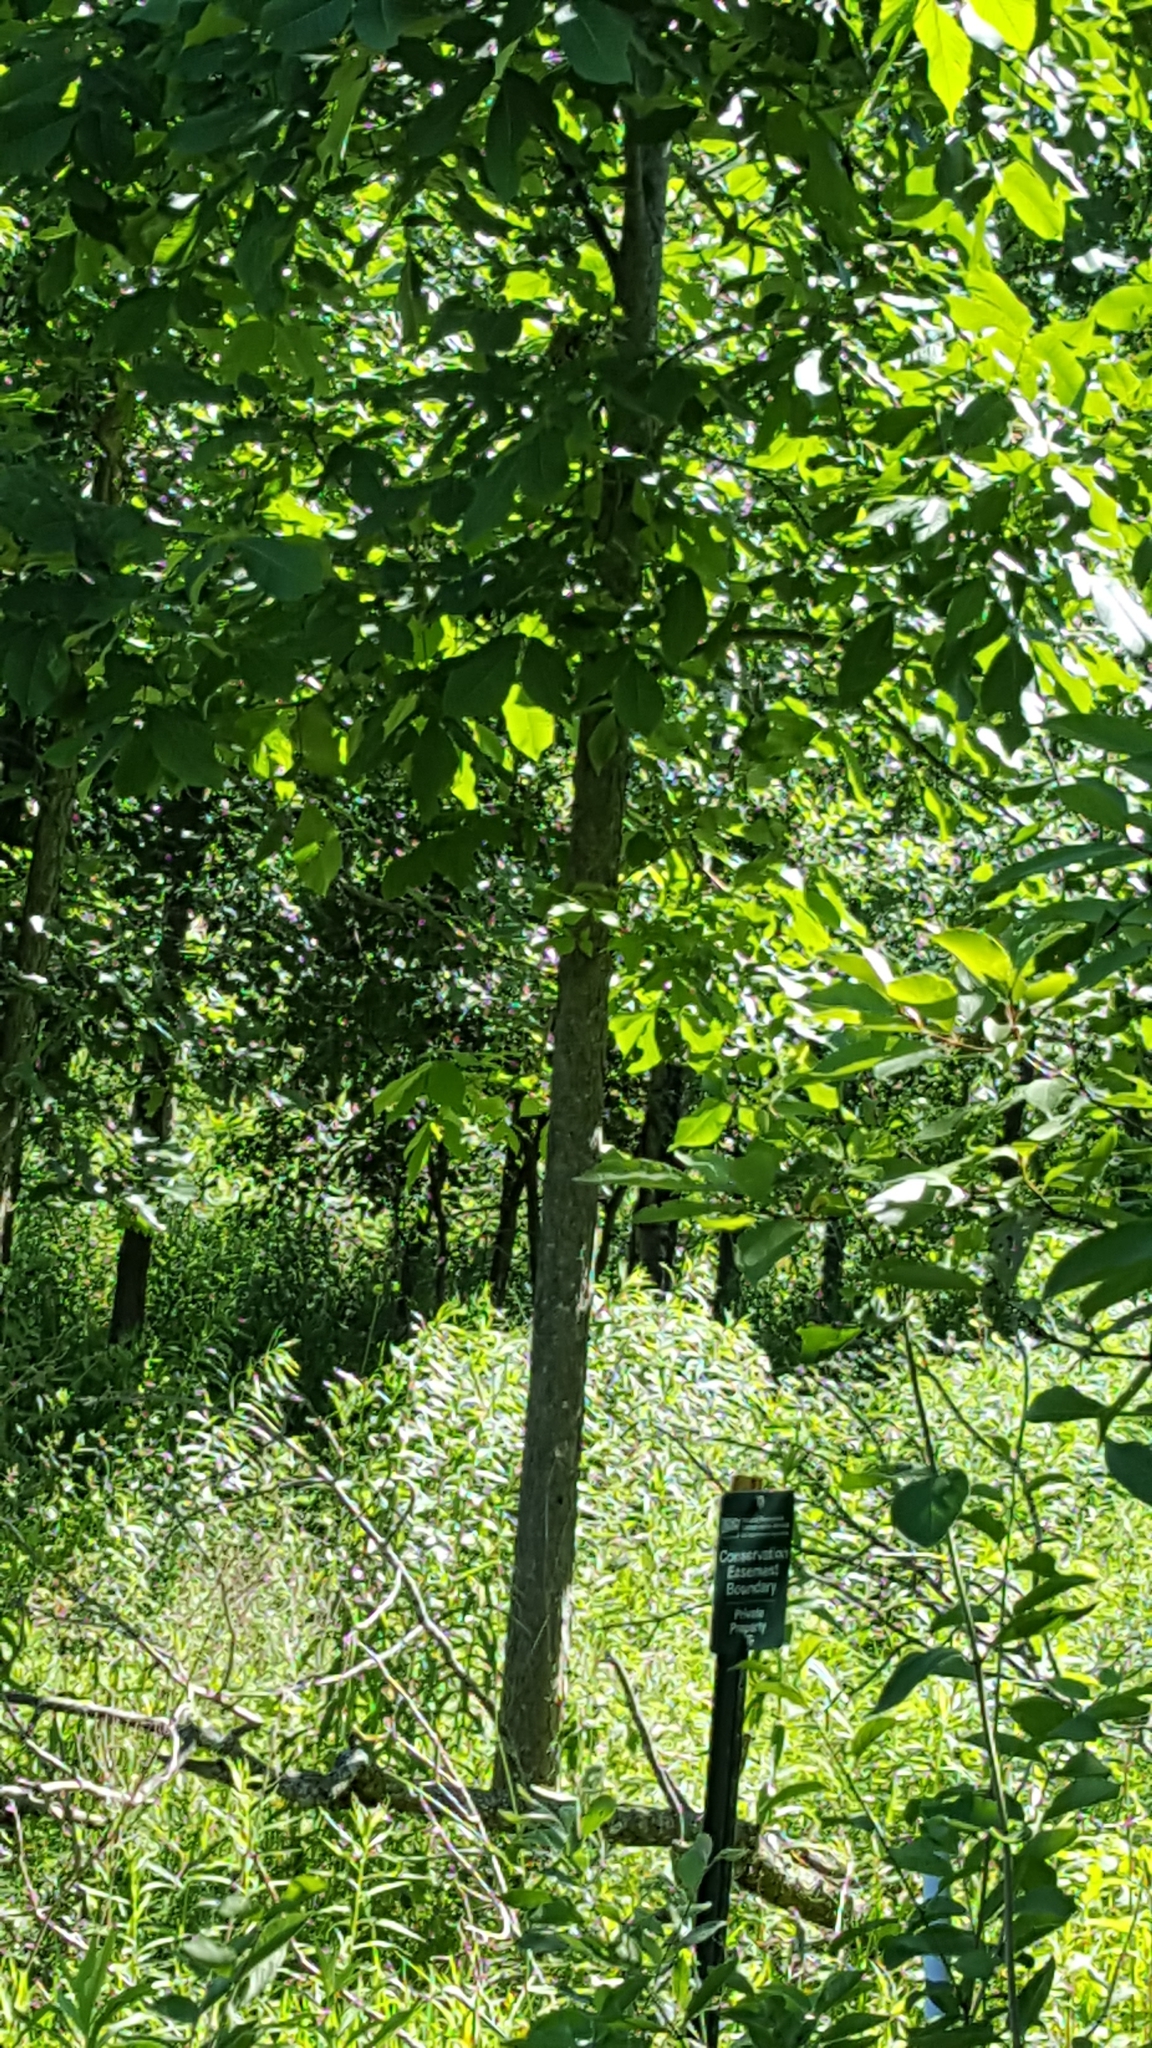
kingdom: Plantae
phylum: Tracheophyta
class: Magnoliopsida
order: Fagales
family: Juglandaceae
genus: Carya
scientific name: Carya ovata
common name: Shagbark hickory
